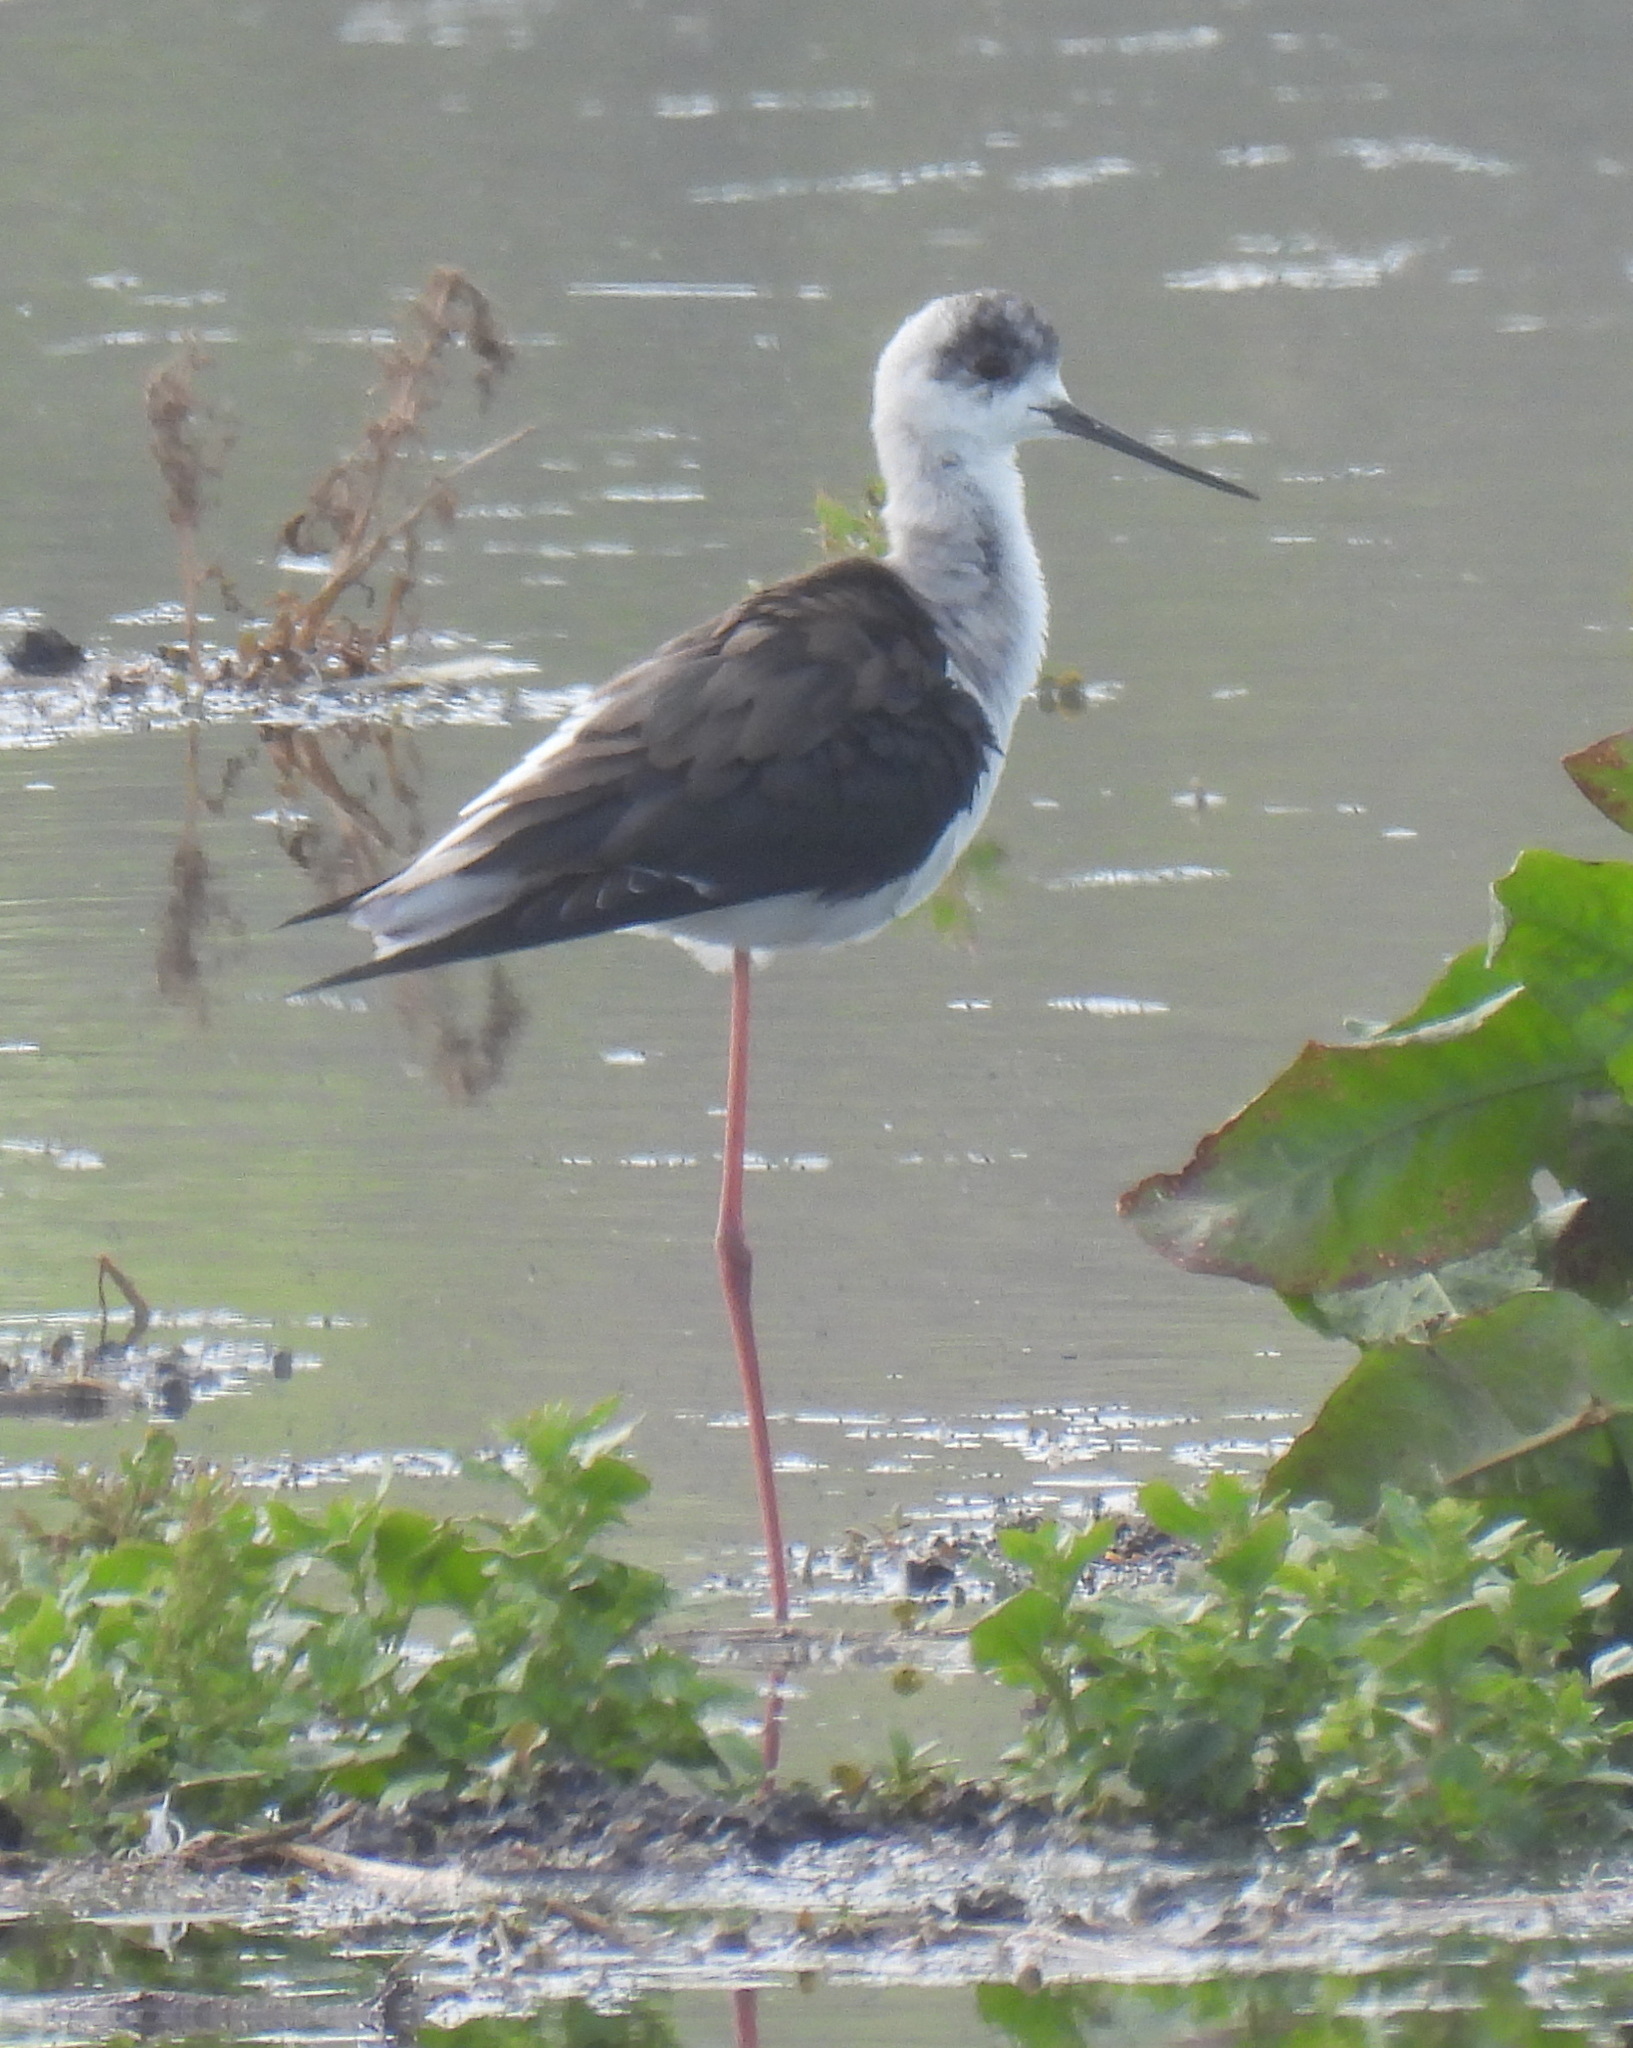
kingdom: Animalia
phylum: Chordata
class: Aves
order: Charadriiformes
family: Recurvirostridae
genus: Himantopus
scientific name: Himantopus himantopus
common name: Black-winged stilt
